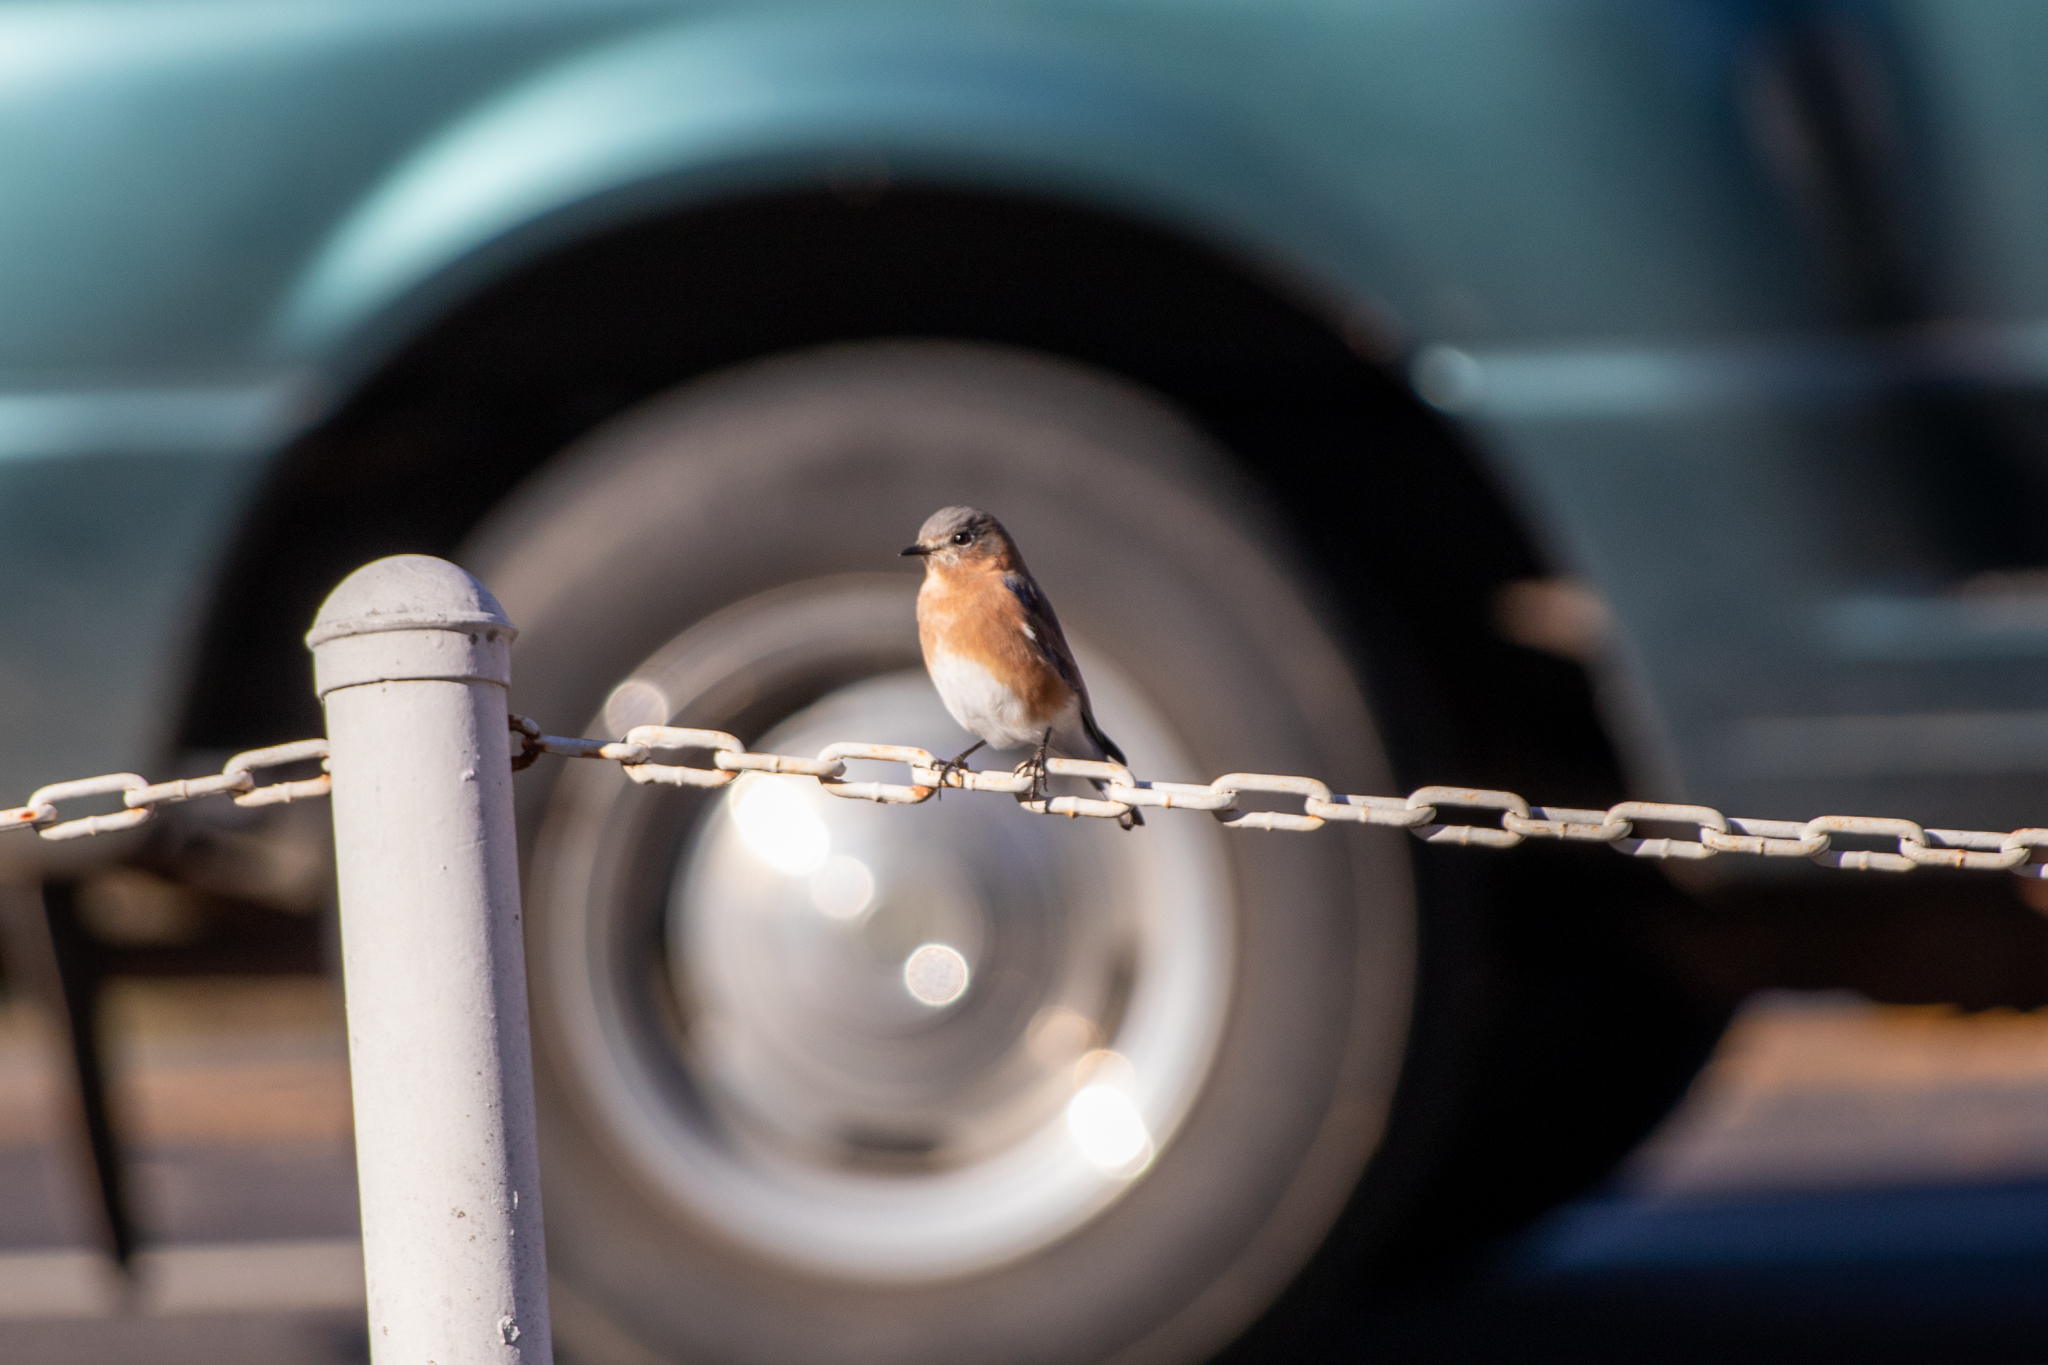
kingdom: Animalia
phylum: Chordata
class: Aves
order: Passeriformes
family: Turdidae
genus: Sialia
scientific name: Sialia sialis
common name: Eastern bluebird
